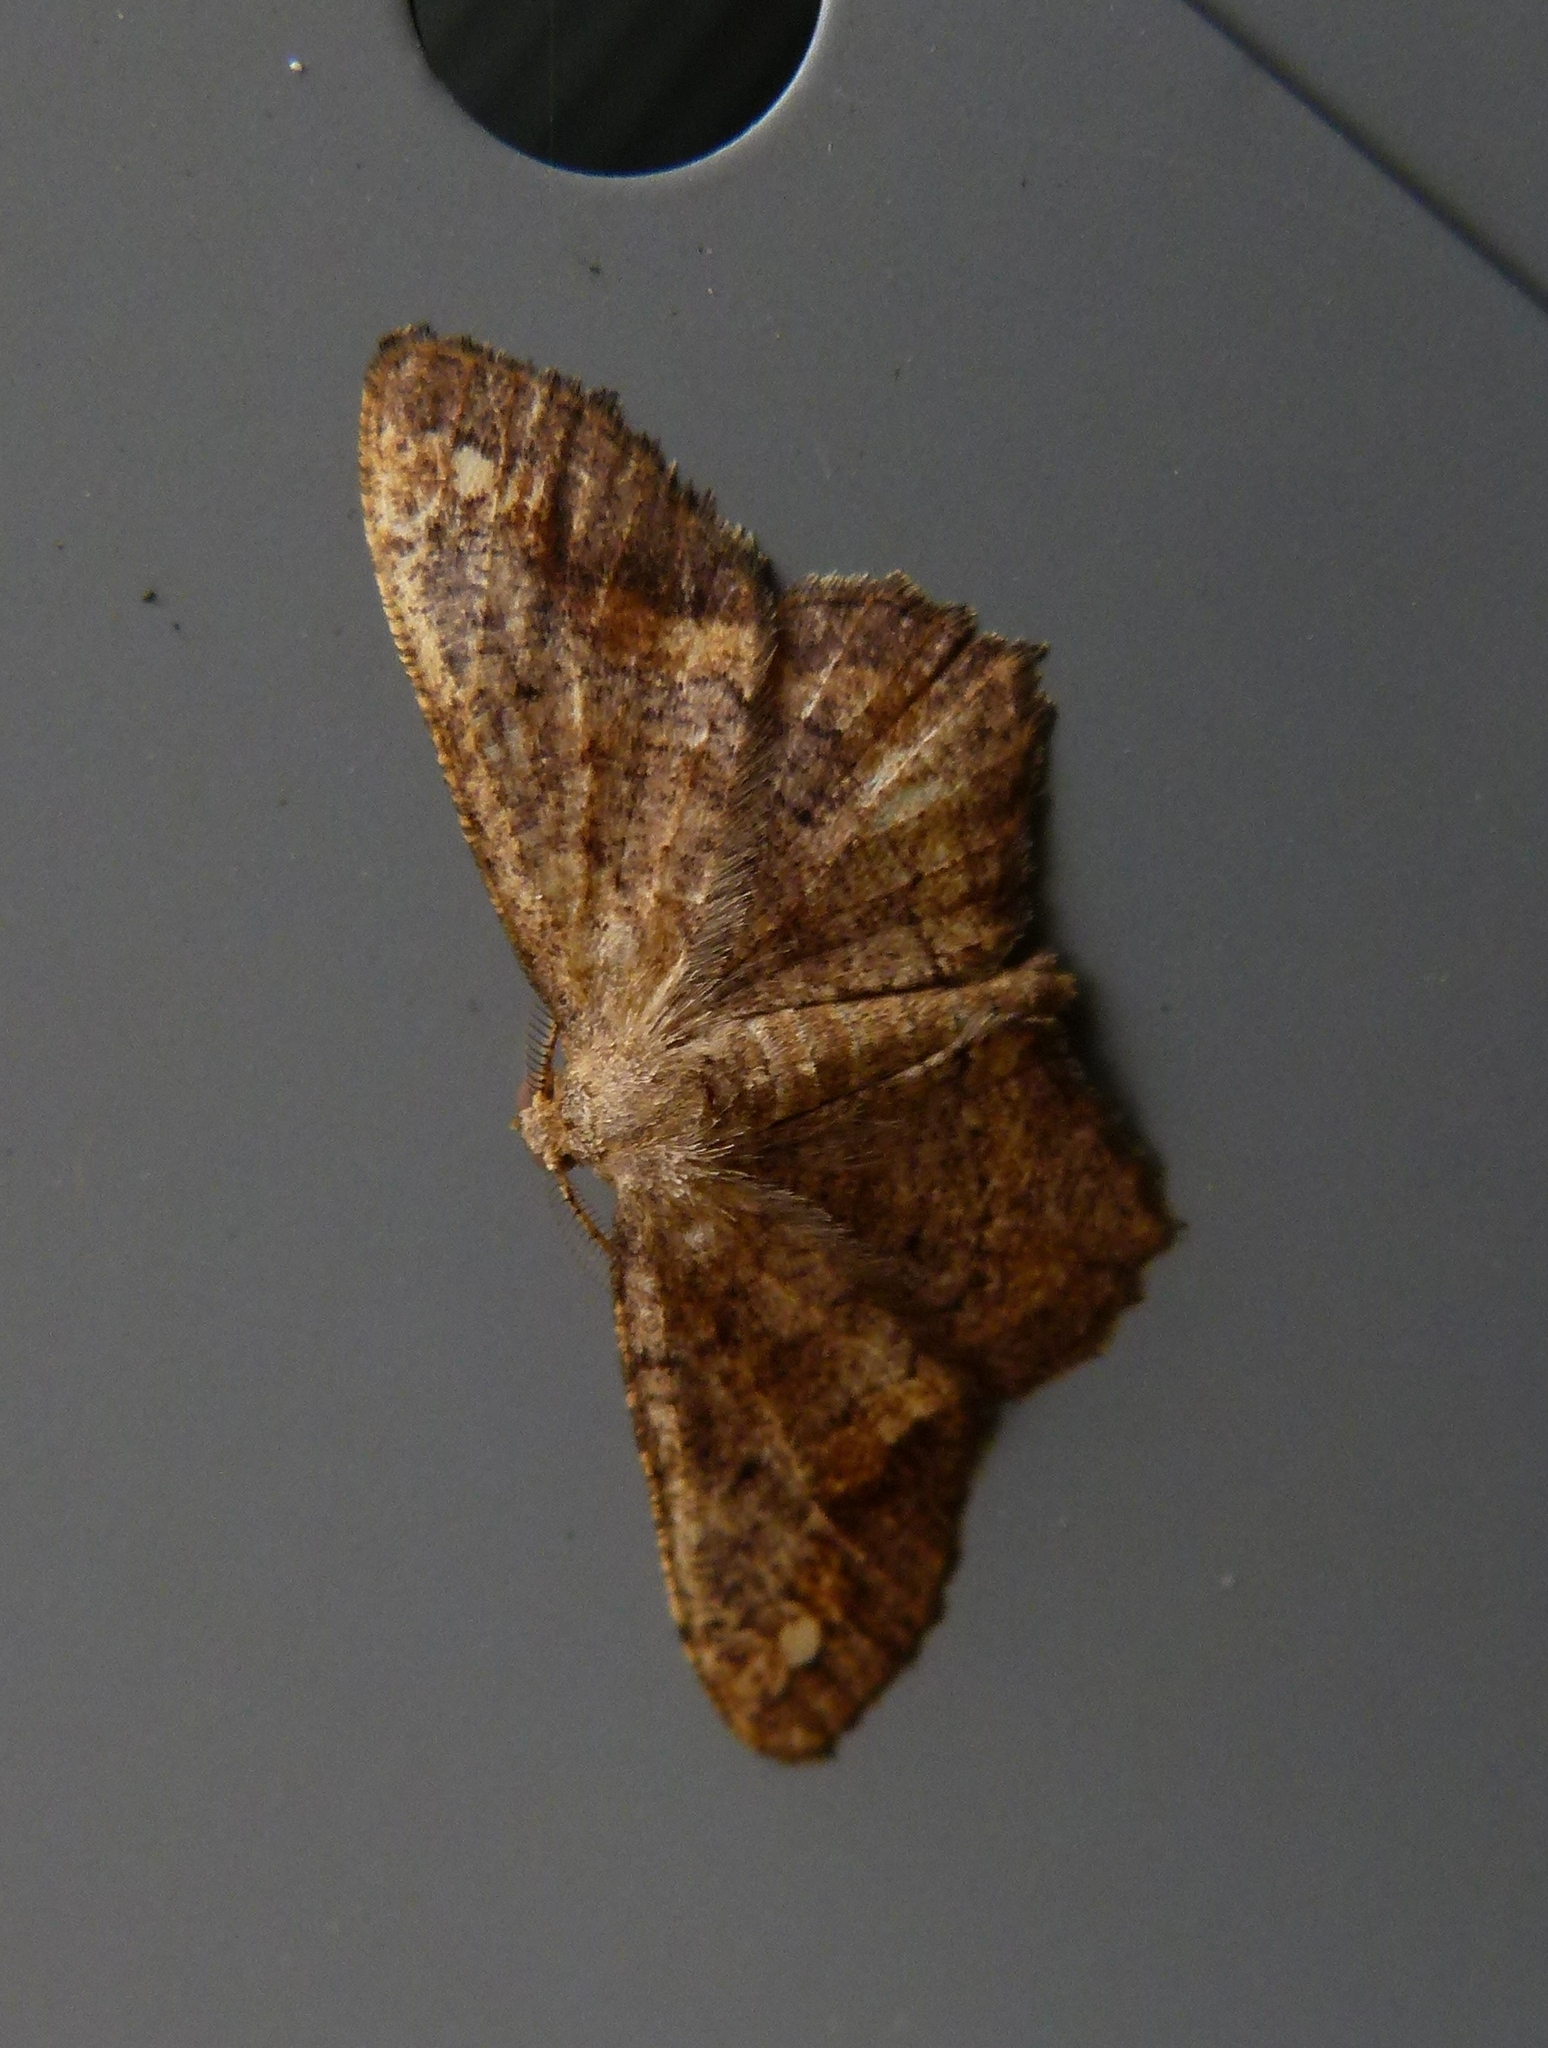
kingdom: Animalia
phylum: Arthropoda
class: Insecta
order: Lepidoptera
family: Geometridae
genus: Hypagyrtis
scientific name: Hypagyrtis unipunctata
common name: One-spotted variant
